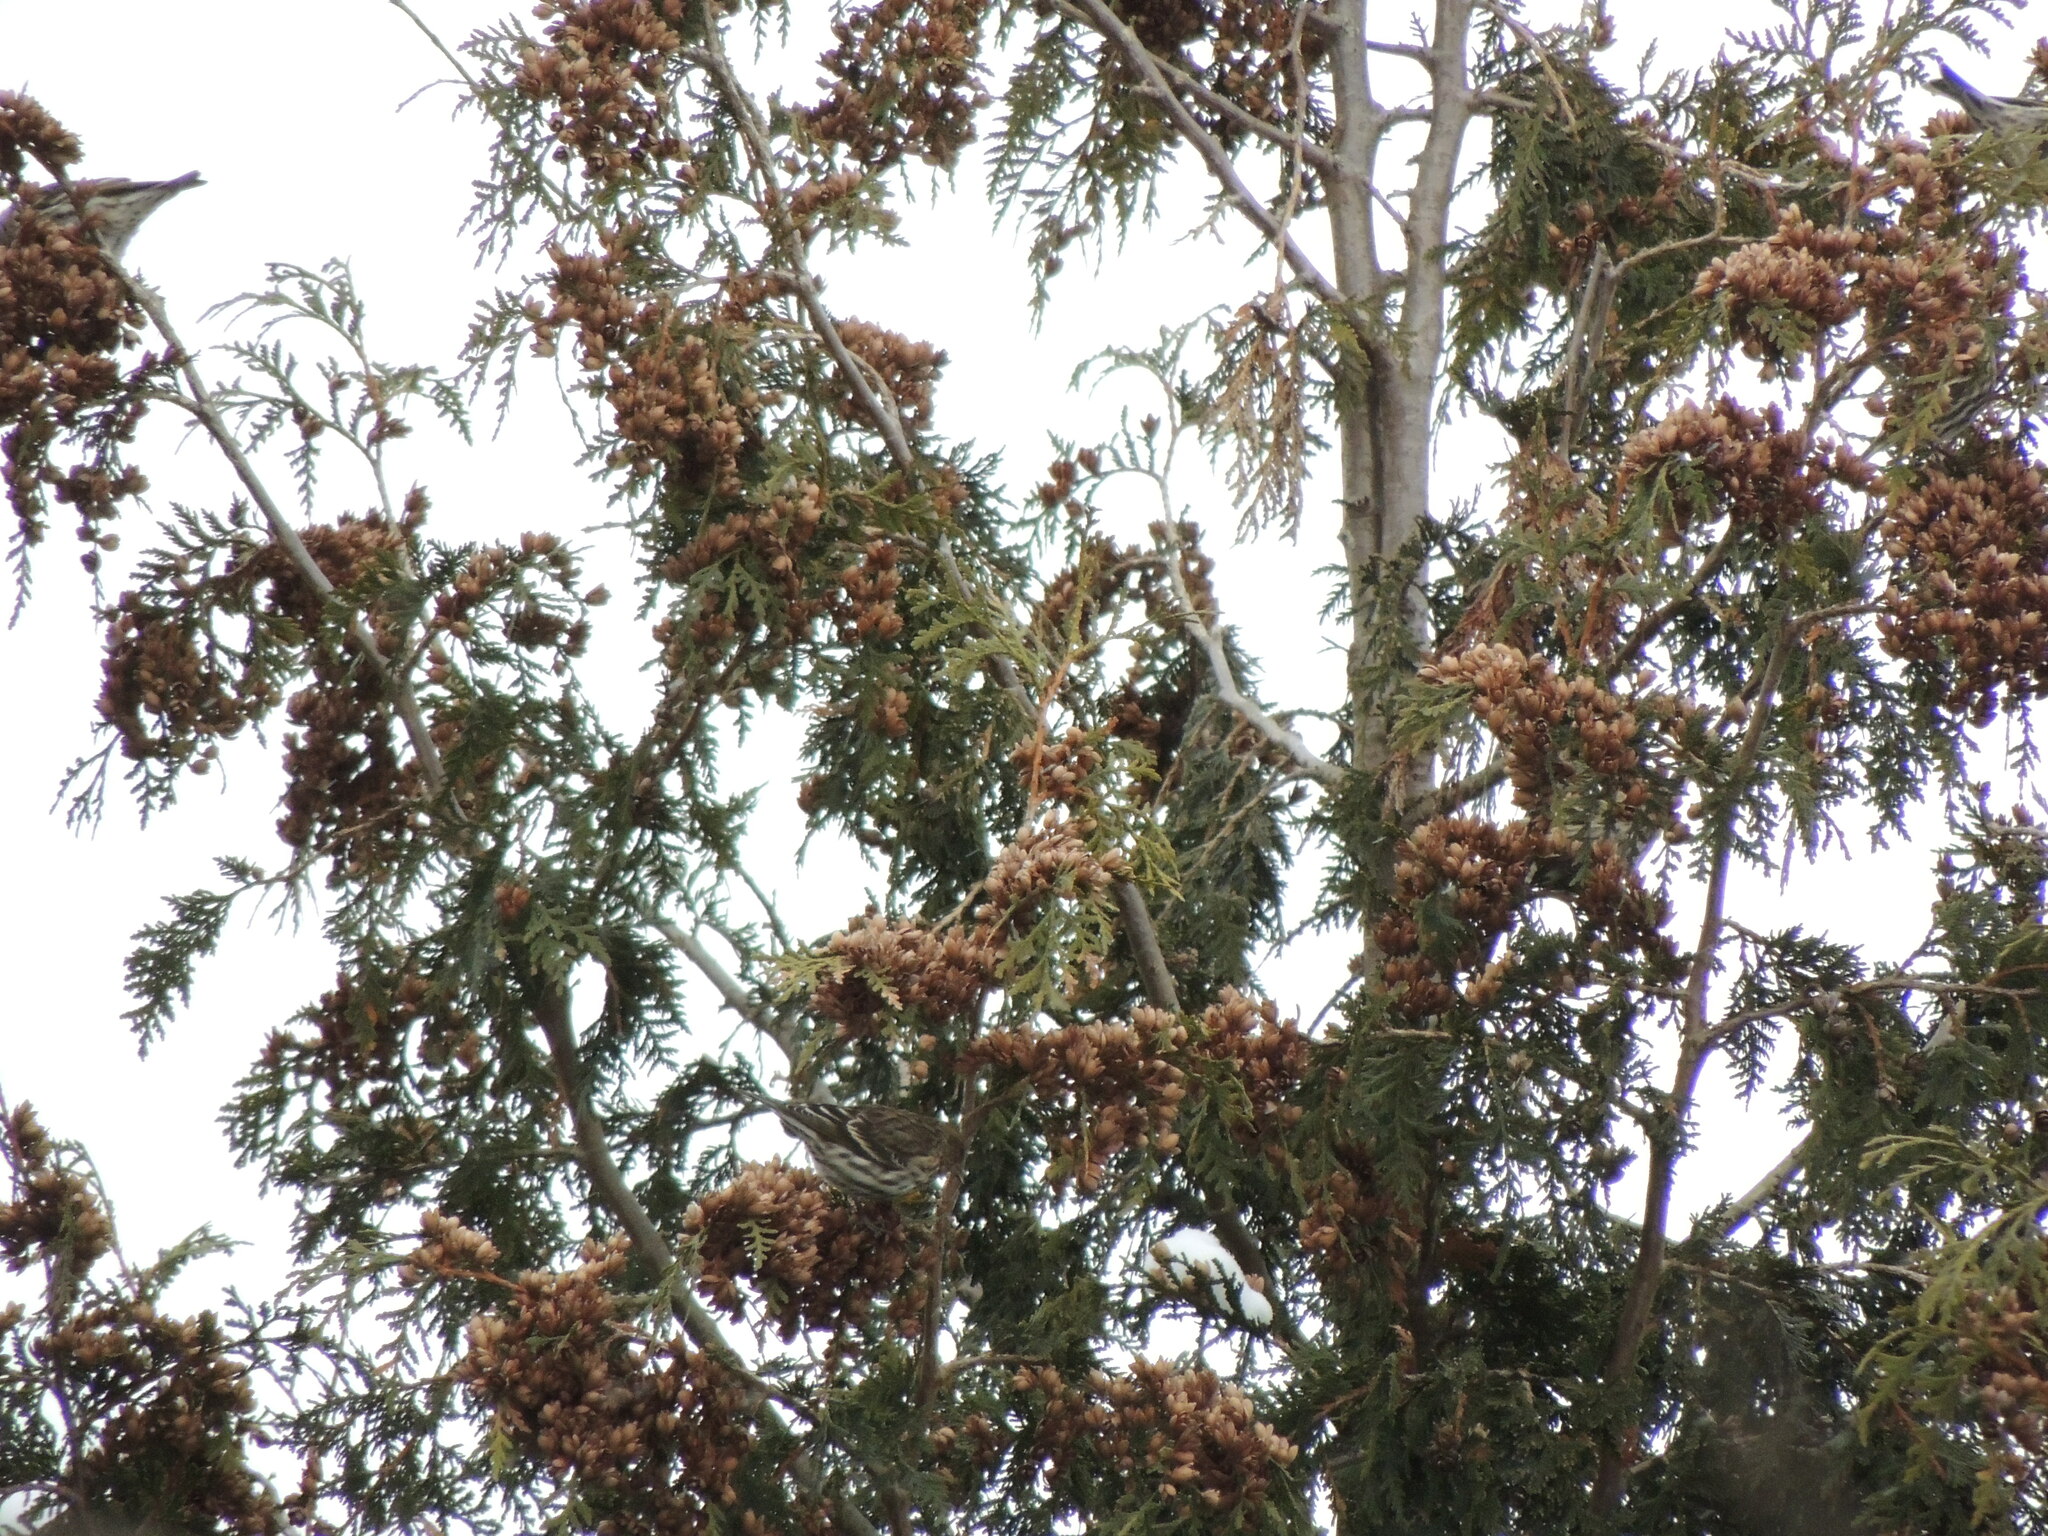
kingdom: Animalia
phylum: Chordata
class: Aves
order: Passeriformes
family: Fringillidae
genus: Spinus
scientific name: Spinus pinus
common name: Pine siskin
